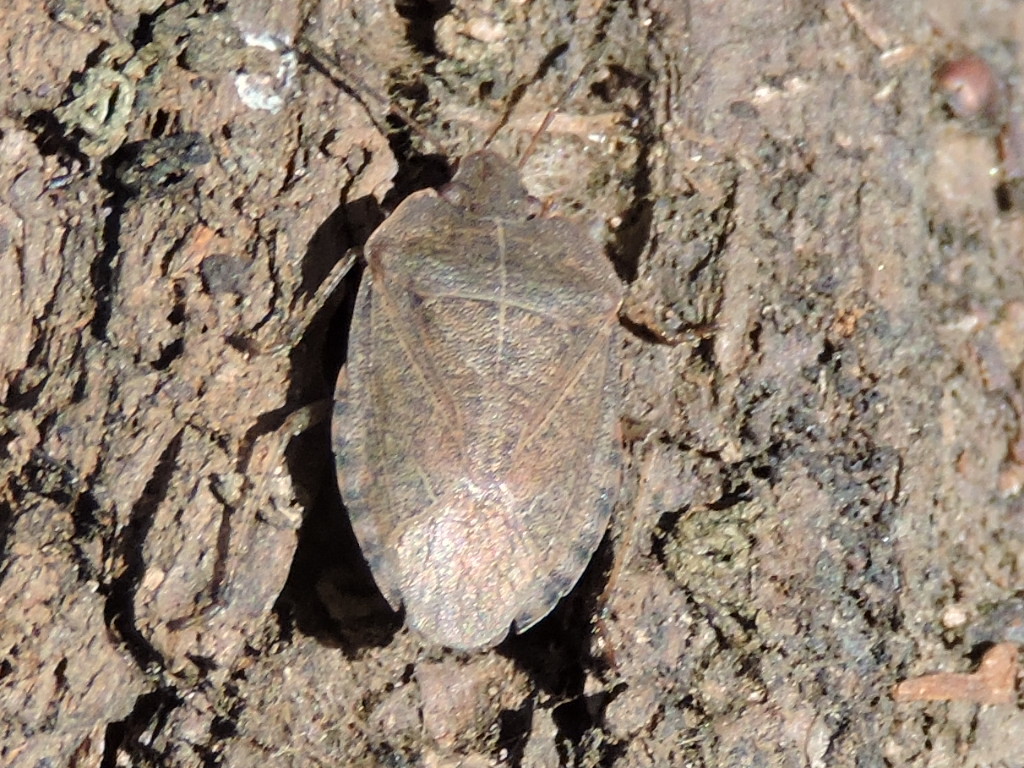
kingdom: Animalia
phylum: Arthropoda
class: Insecta
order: Hemiptera
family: Pentatomidae
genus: Menecles
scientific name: Menecles insertus
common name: Elf shoe stink bug
